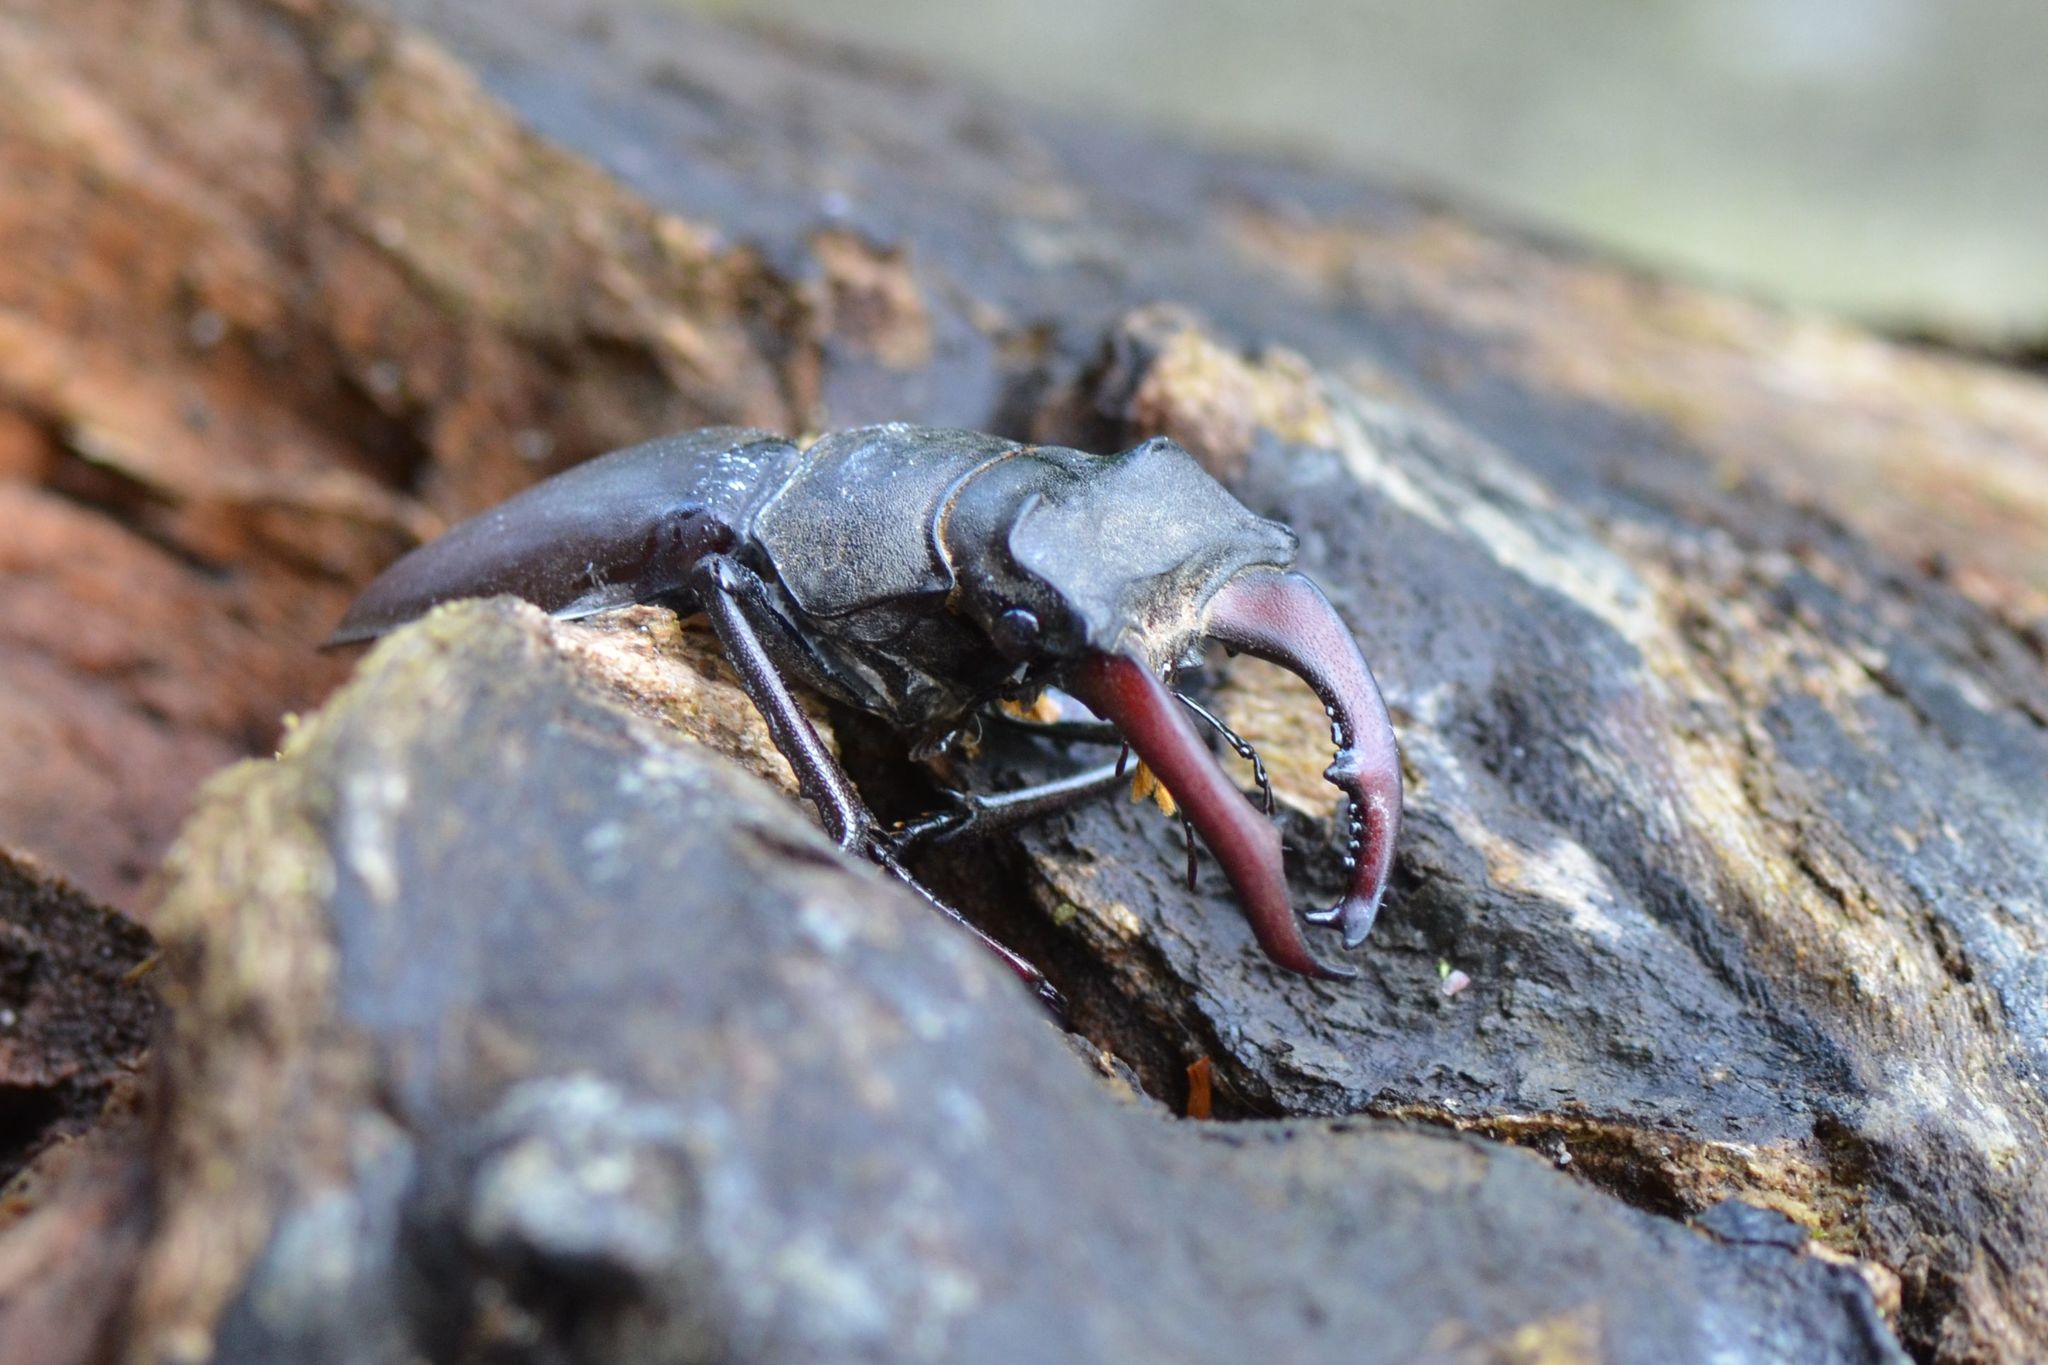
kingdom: Animalia
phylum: Arthropoda
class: Insecta
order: Coleoptera
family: Lucanidae
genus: Lucanus
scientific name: Lucanus cervus
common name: Stag beetle
